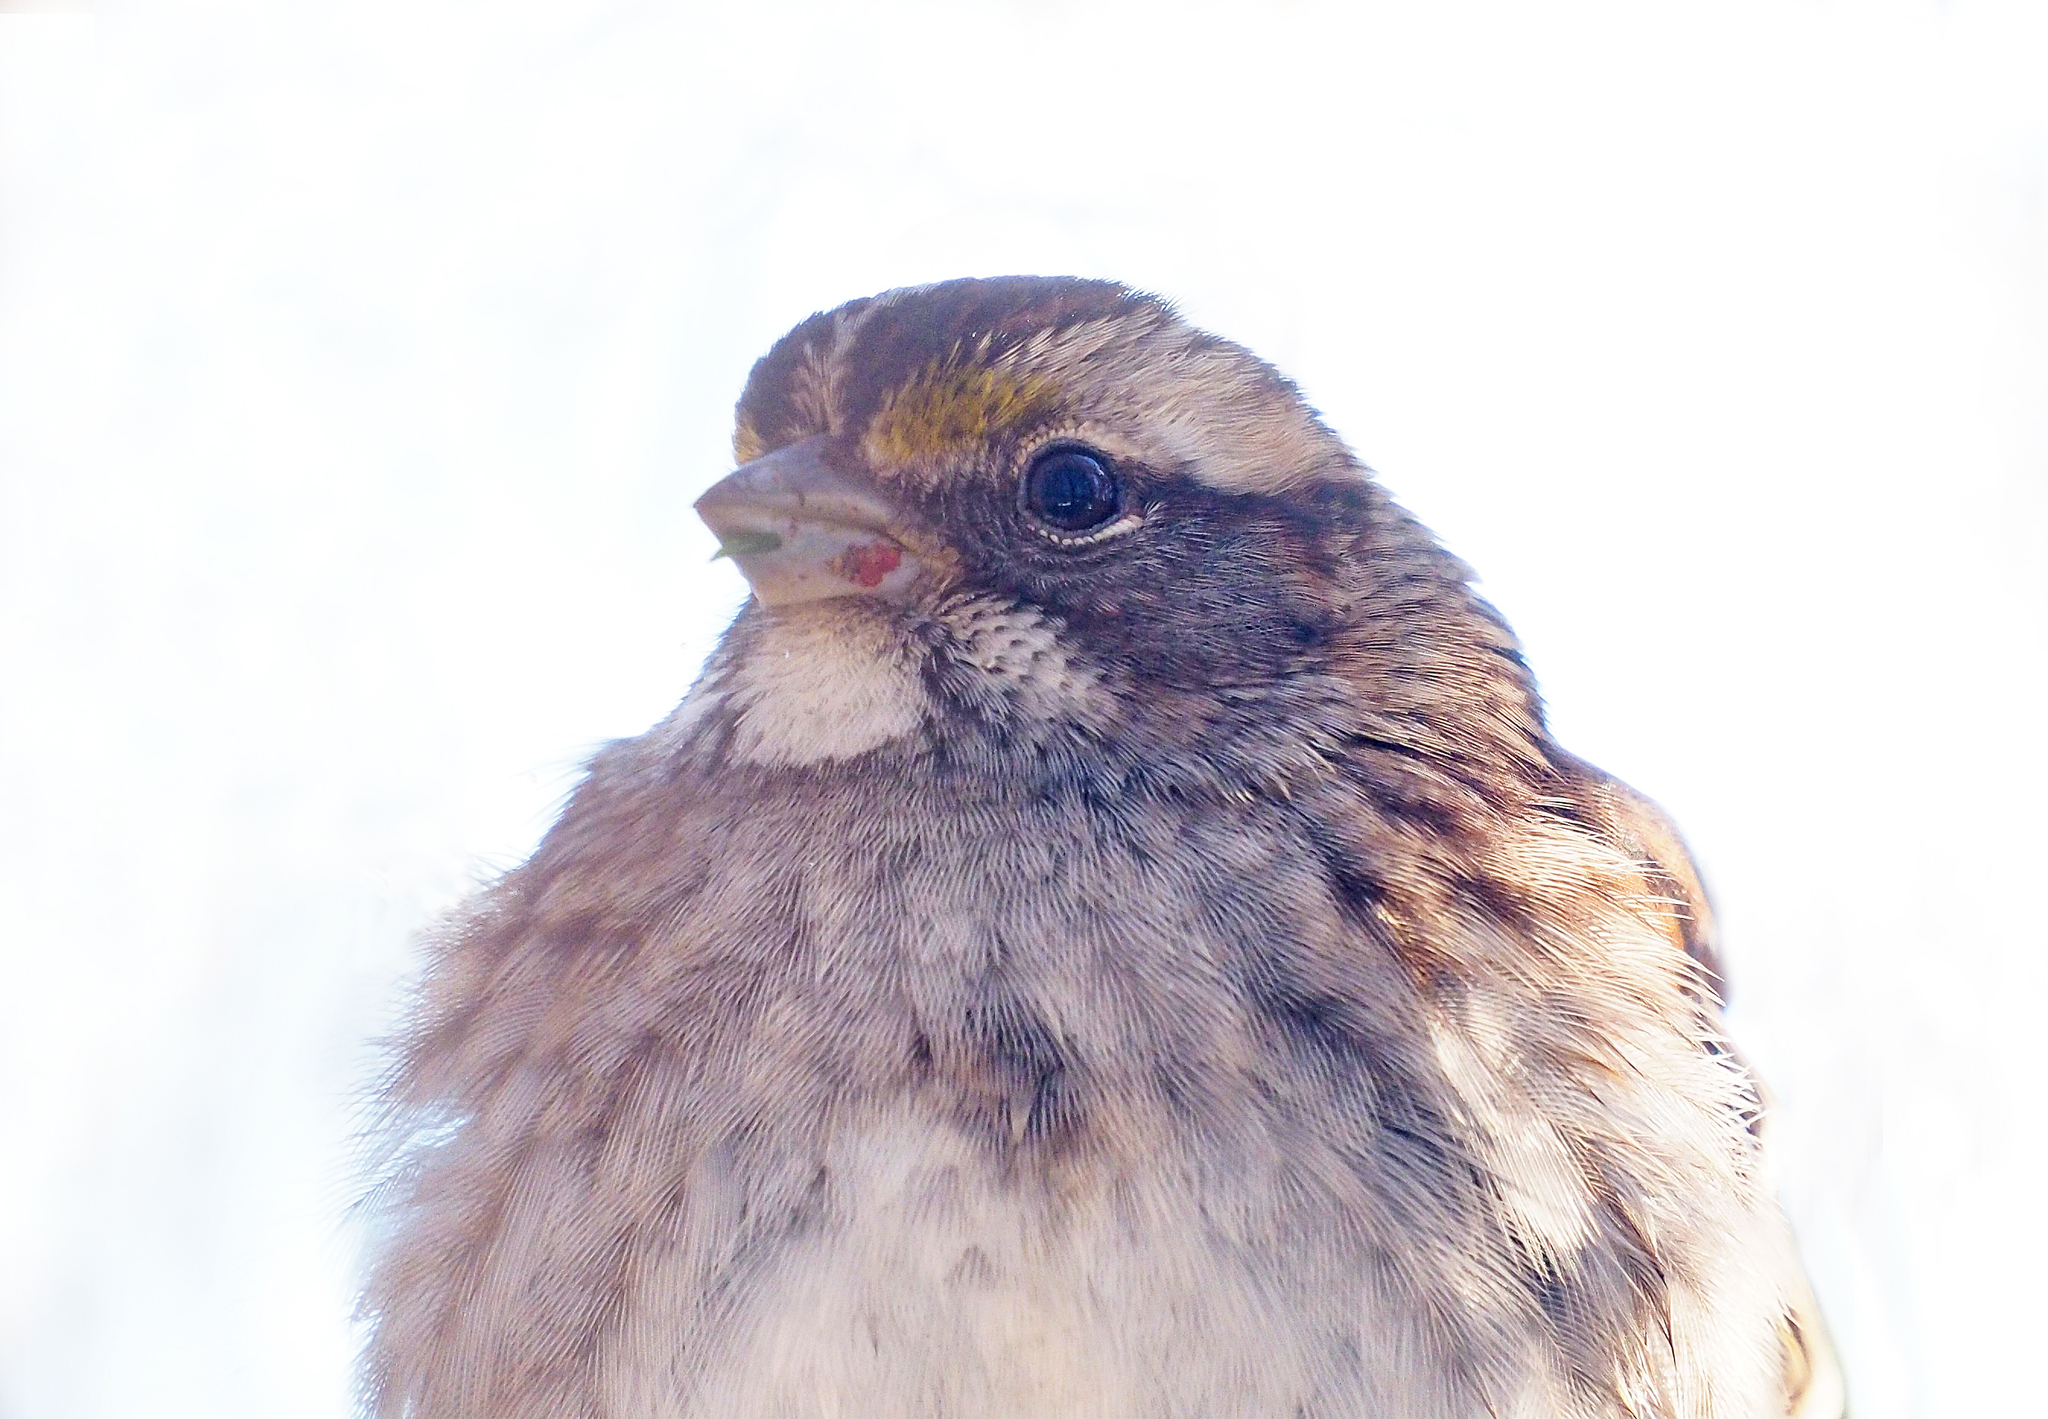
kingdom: Animalia
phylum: Chordata
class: Aves
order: Passeriformes
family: Passerellidae
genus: Zonotrichia
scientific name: Zonotrichia albicollis
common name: White-throated sparrow
